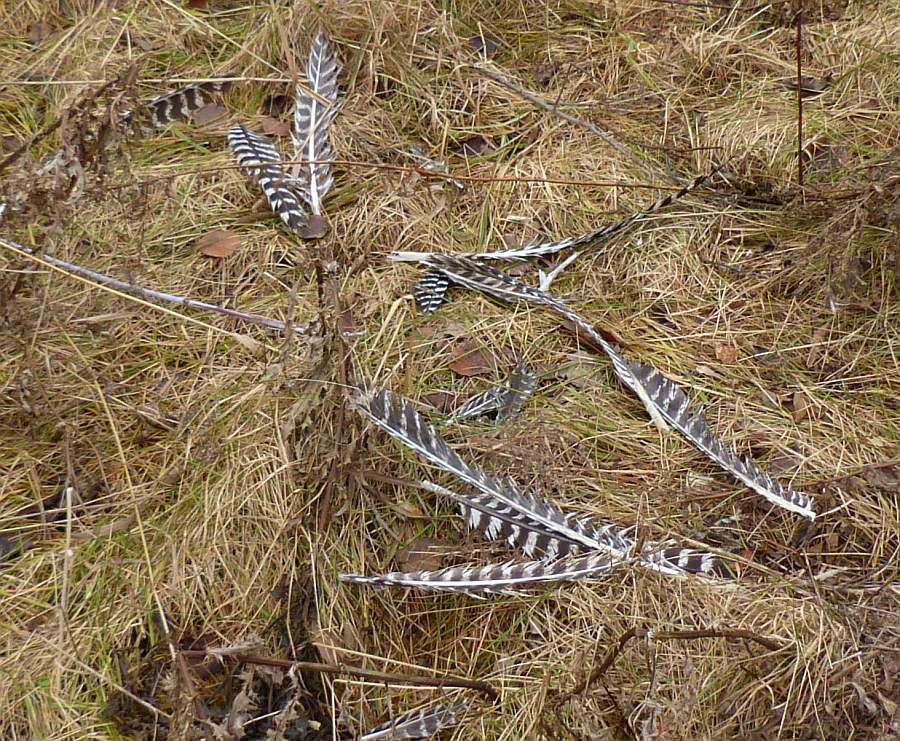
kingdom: Animalia
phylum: Chordata
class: Aves
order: Galliformes
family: Phasianidae
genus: Meleagris
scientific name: Meleagris gallopavo
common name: Wild turkey
